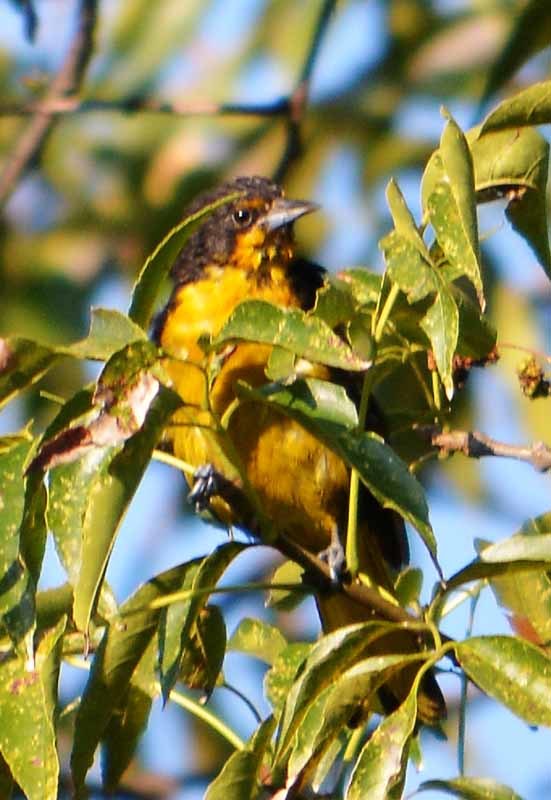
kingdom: Animalia
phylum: Chordata
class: Aves
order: Passeriformes
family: Icteridae
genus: Icterus
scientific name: Icterus abeillei
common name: Black-backed oriole
